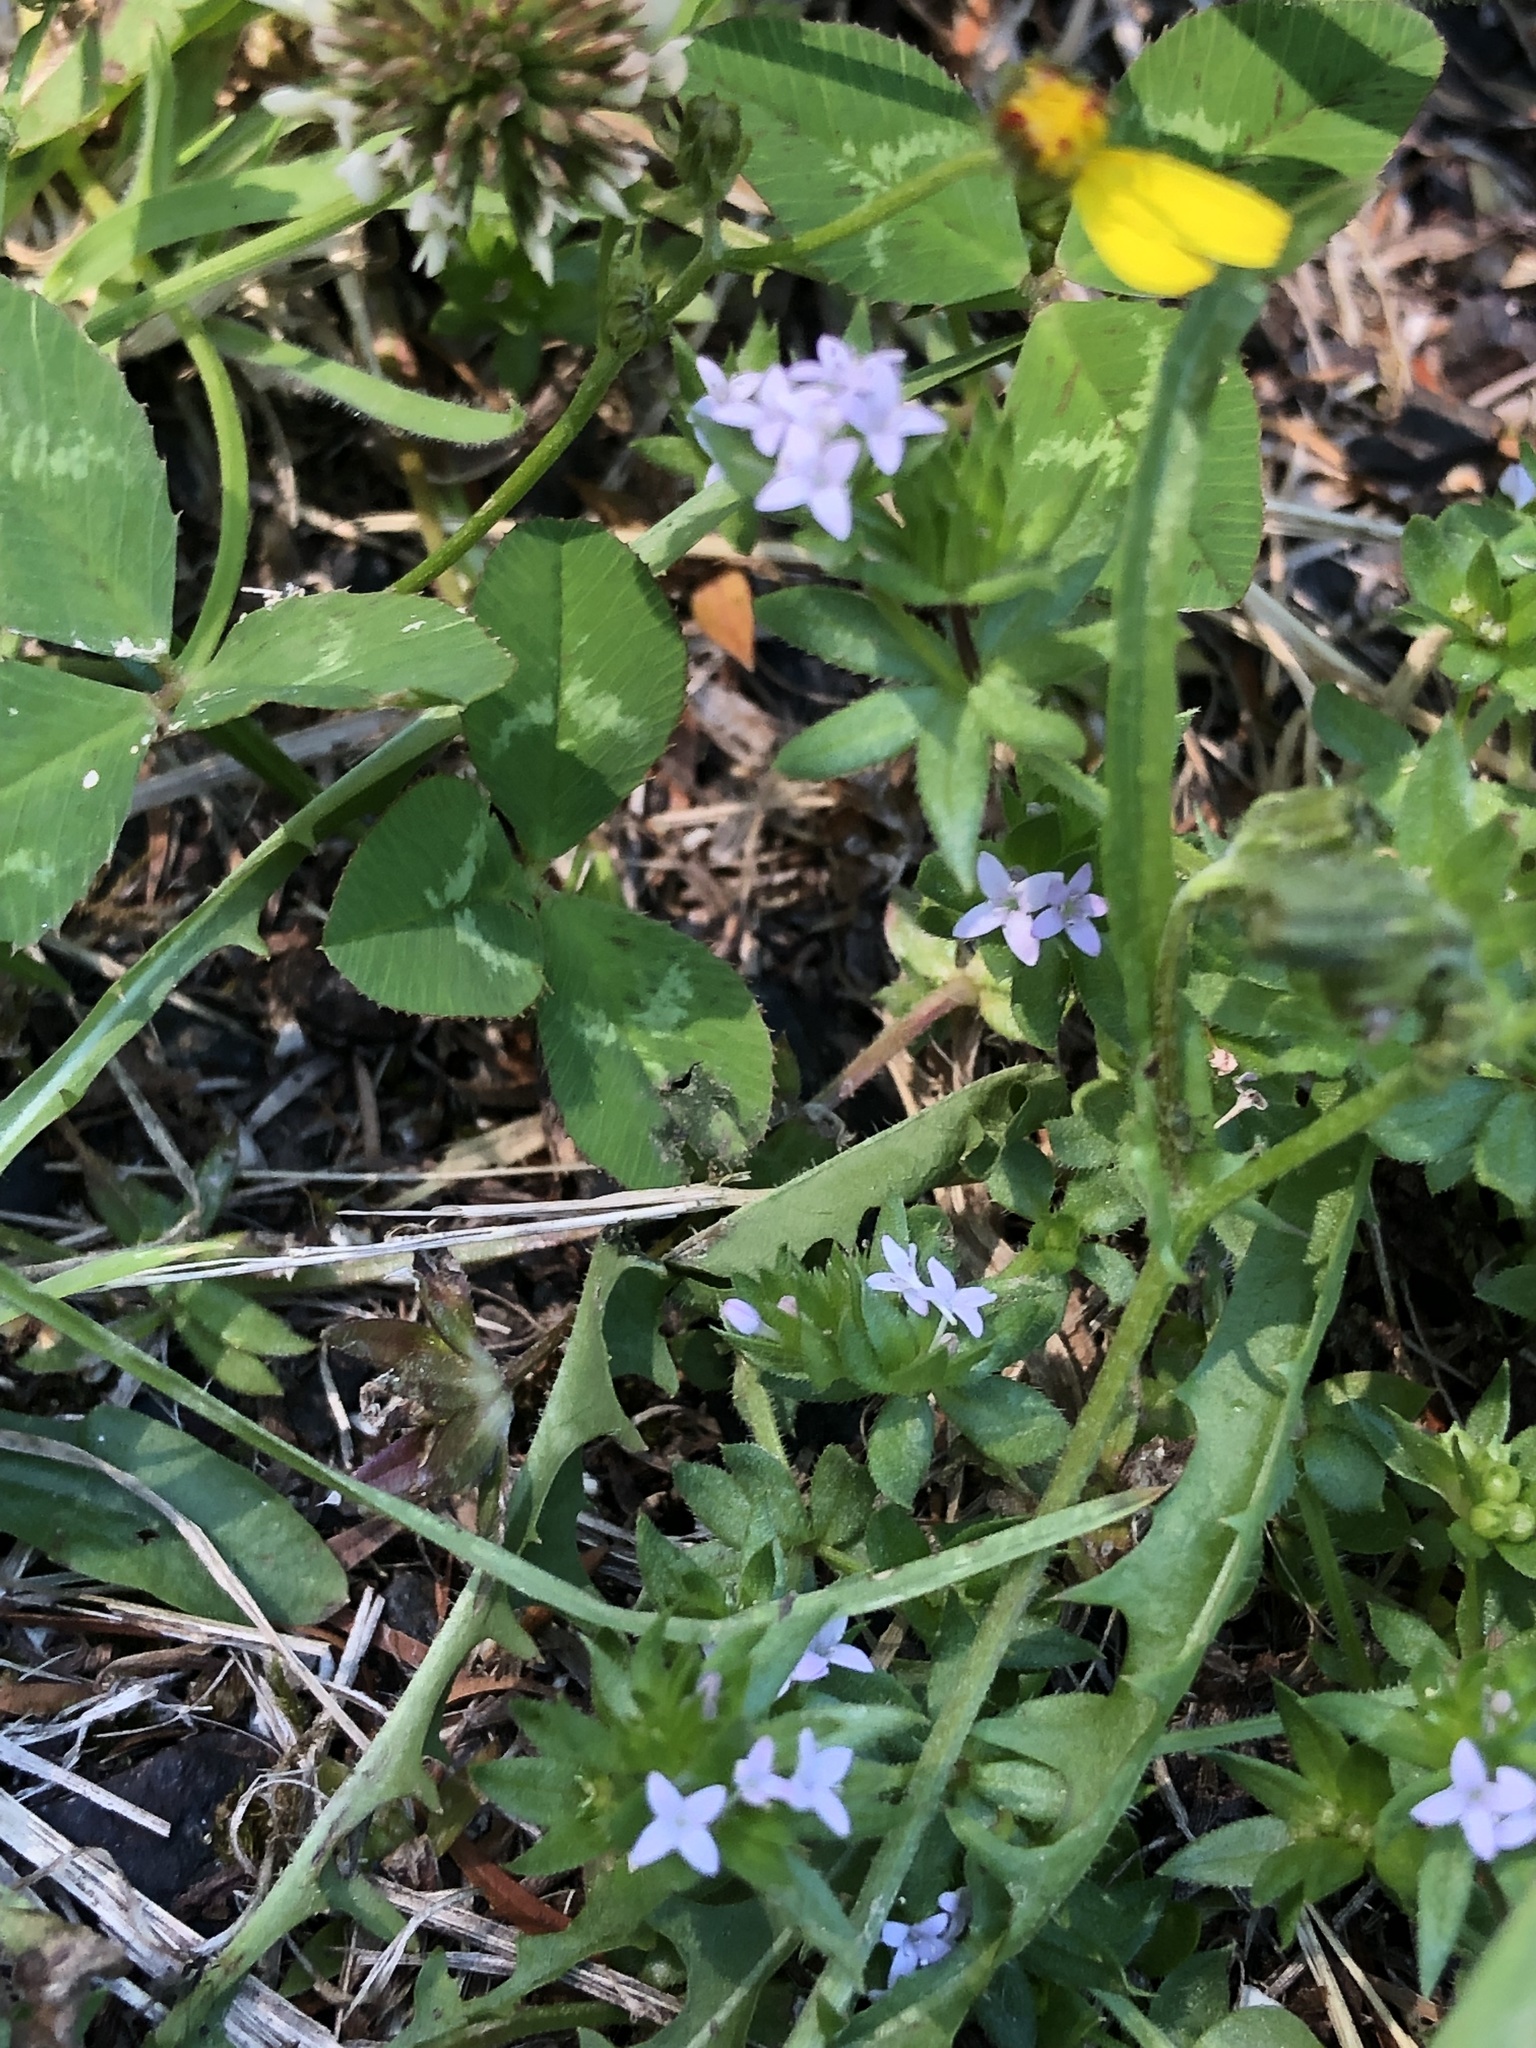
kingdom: Plantae
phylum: Tracheophyta
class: Magnoliopsida
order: Gentianales
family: Rubiaceae
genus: Sherardia
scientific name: Sherardia arvensis
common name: Field madder
